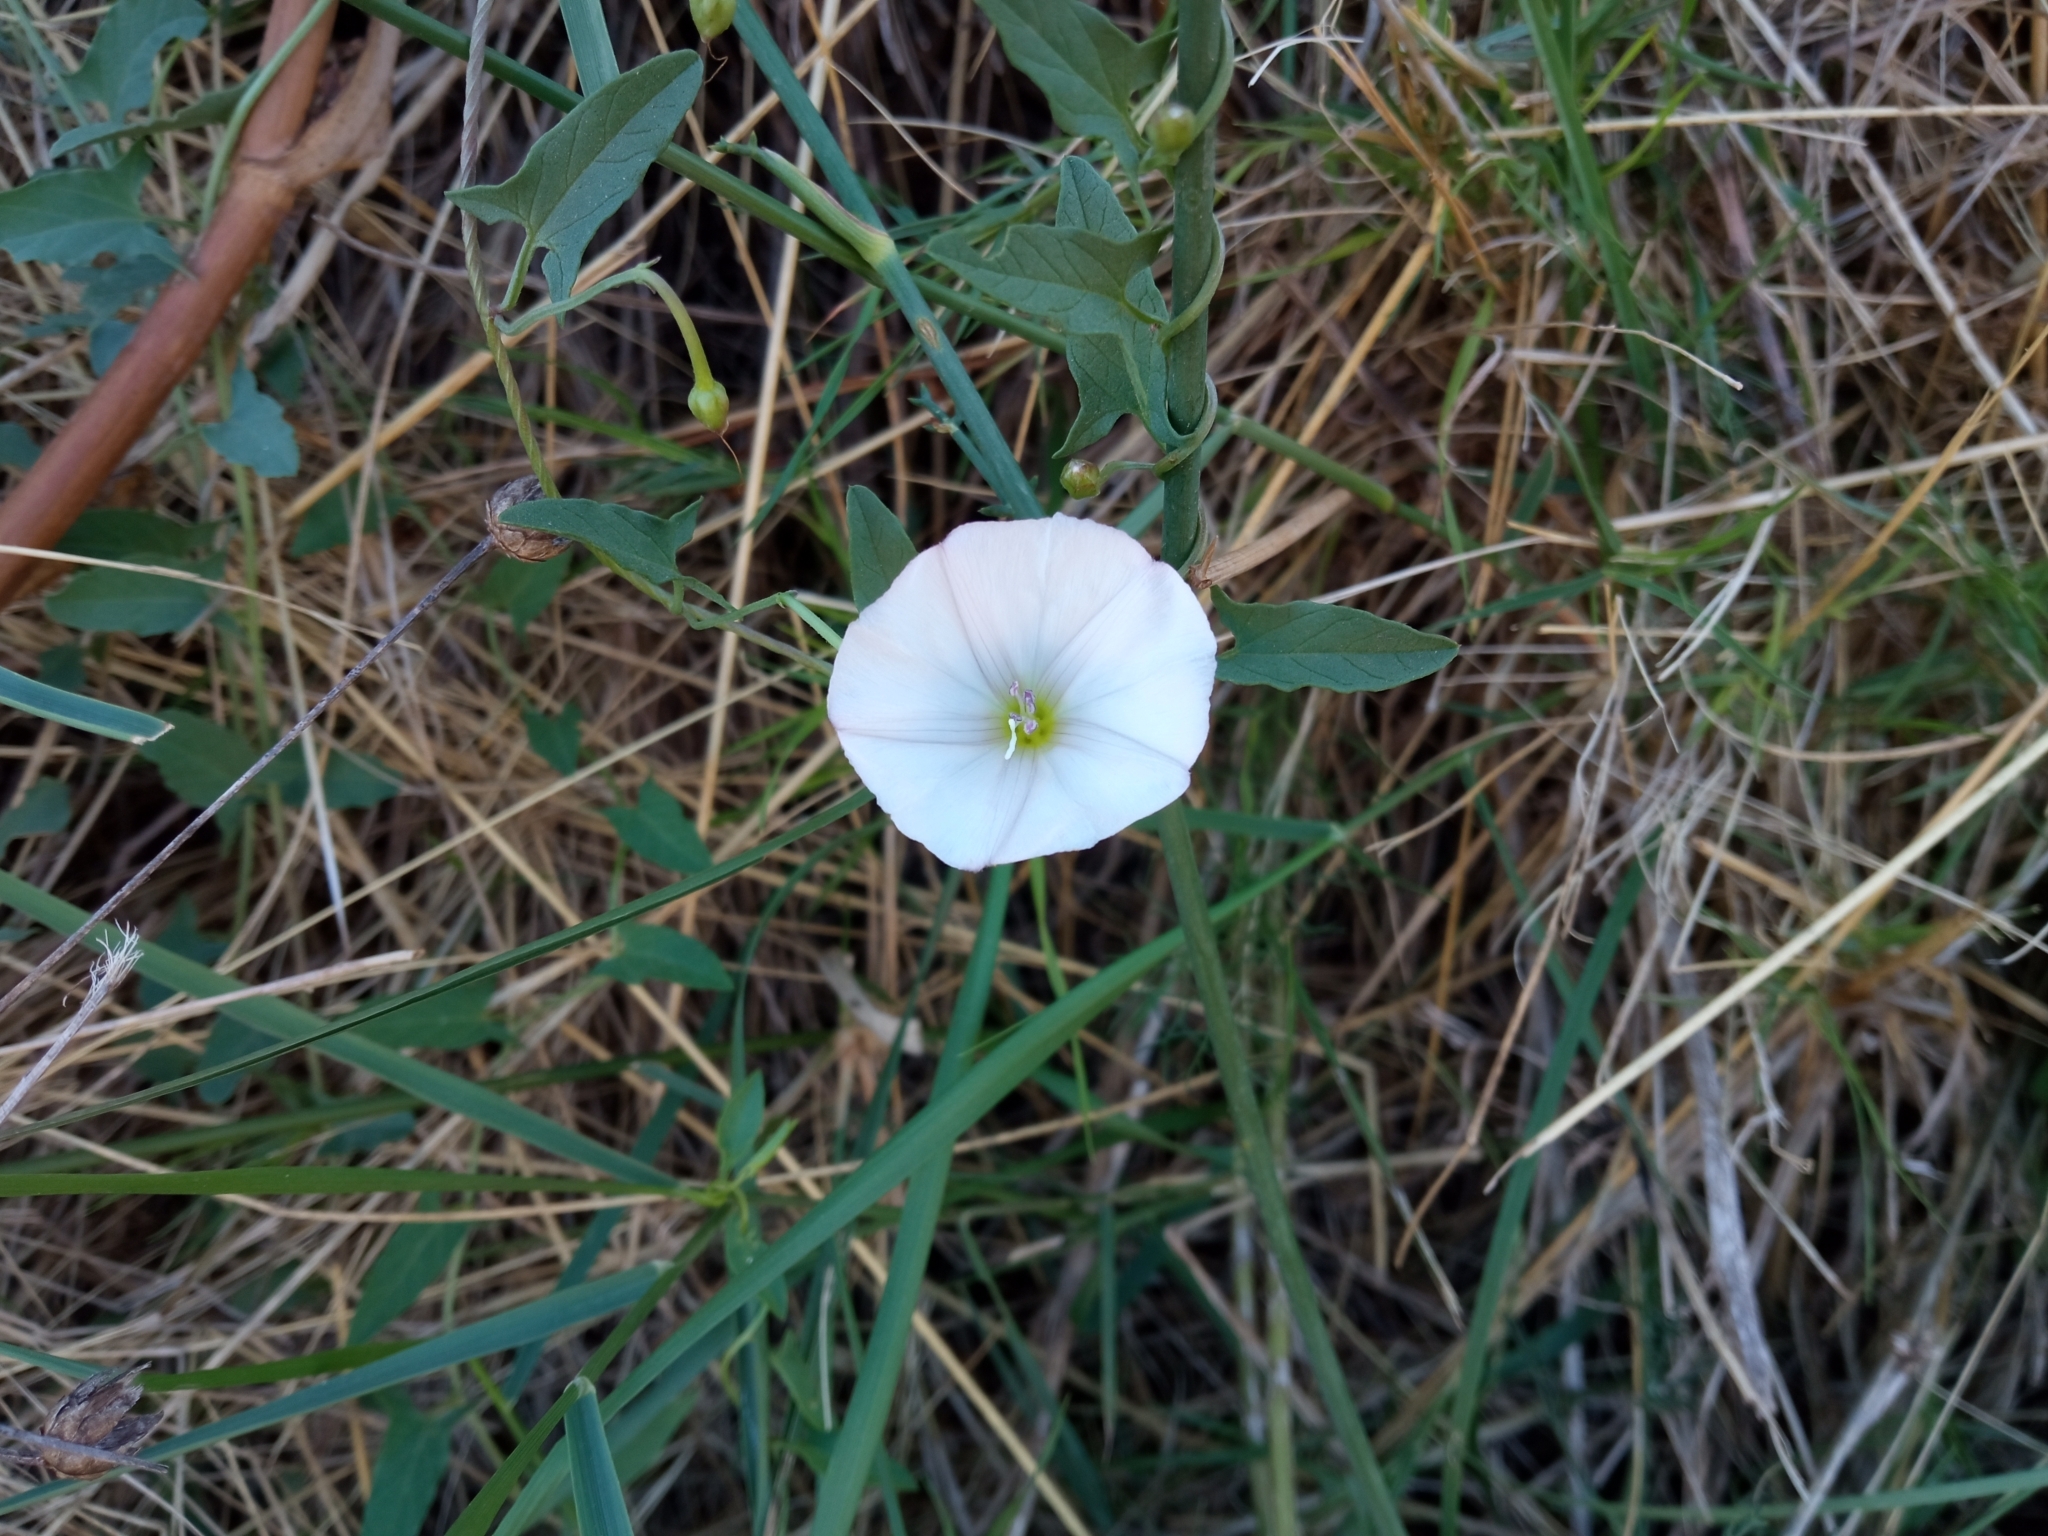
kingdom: Plantae
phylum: Tracheophyta
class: Magnoliopsida
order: Solanales
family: Convolvulaceae
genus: Convolvulus
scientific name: Convolvulus arvensis
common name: Field bindweed
